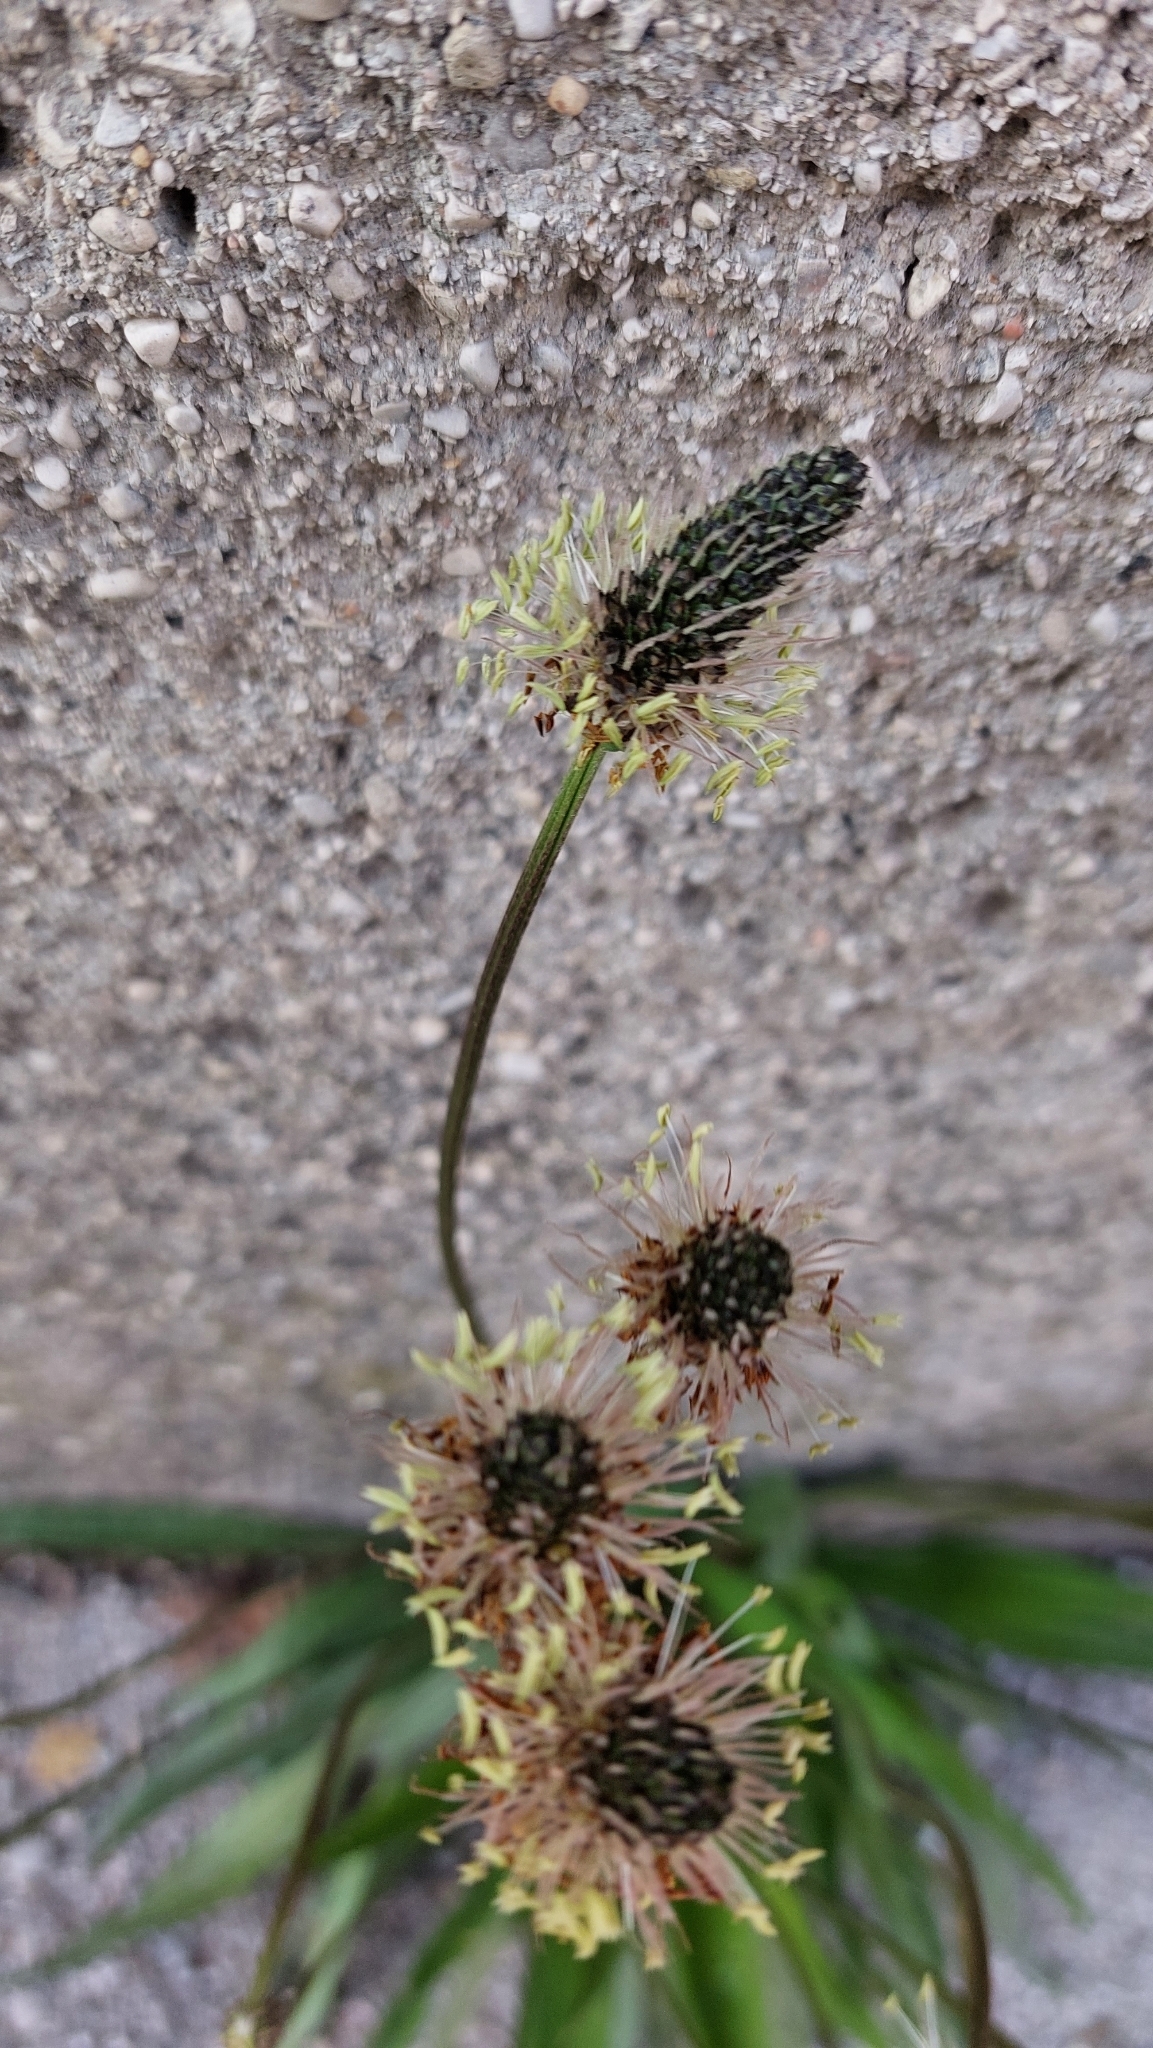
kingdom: Plantae
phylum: Tracheophyta
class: Magnoliopsida
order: Lamiales
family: Plantaginaceae
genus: Plantago
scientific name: Plantago lanceolata
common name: Ribwort plantain
